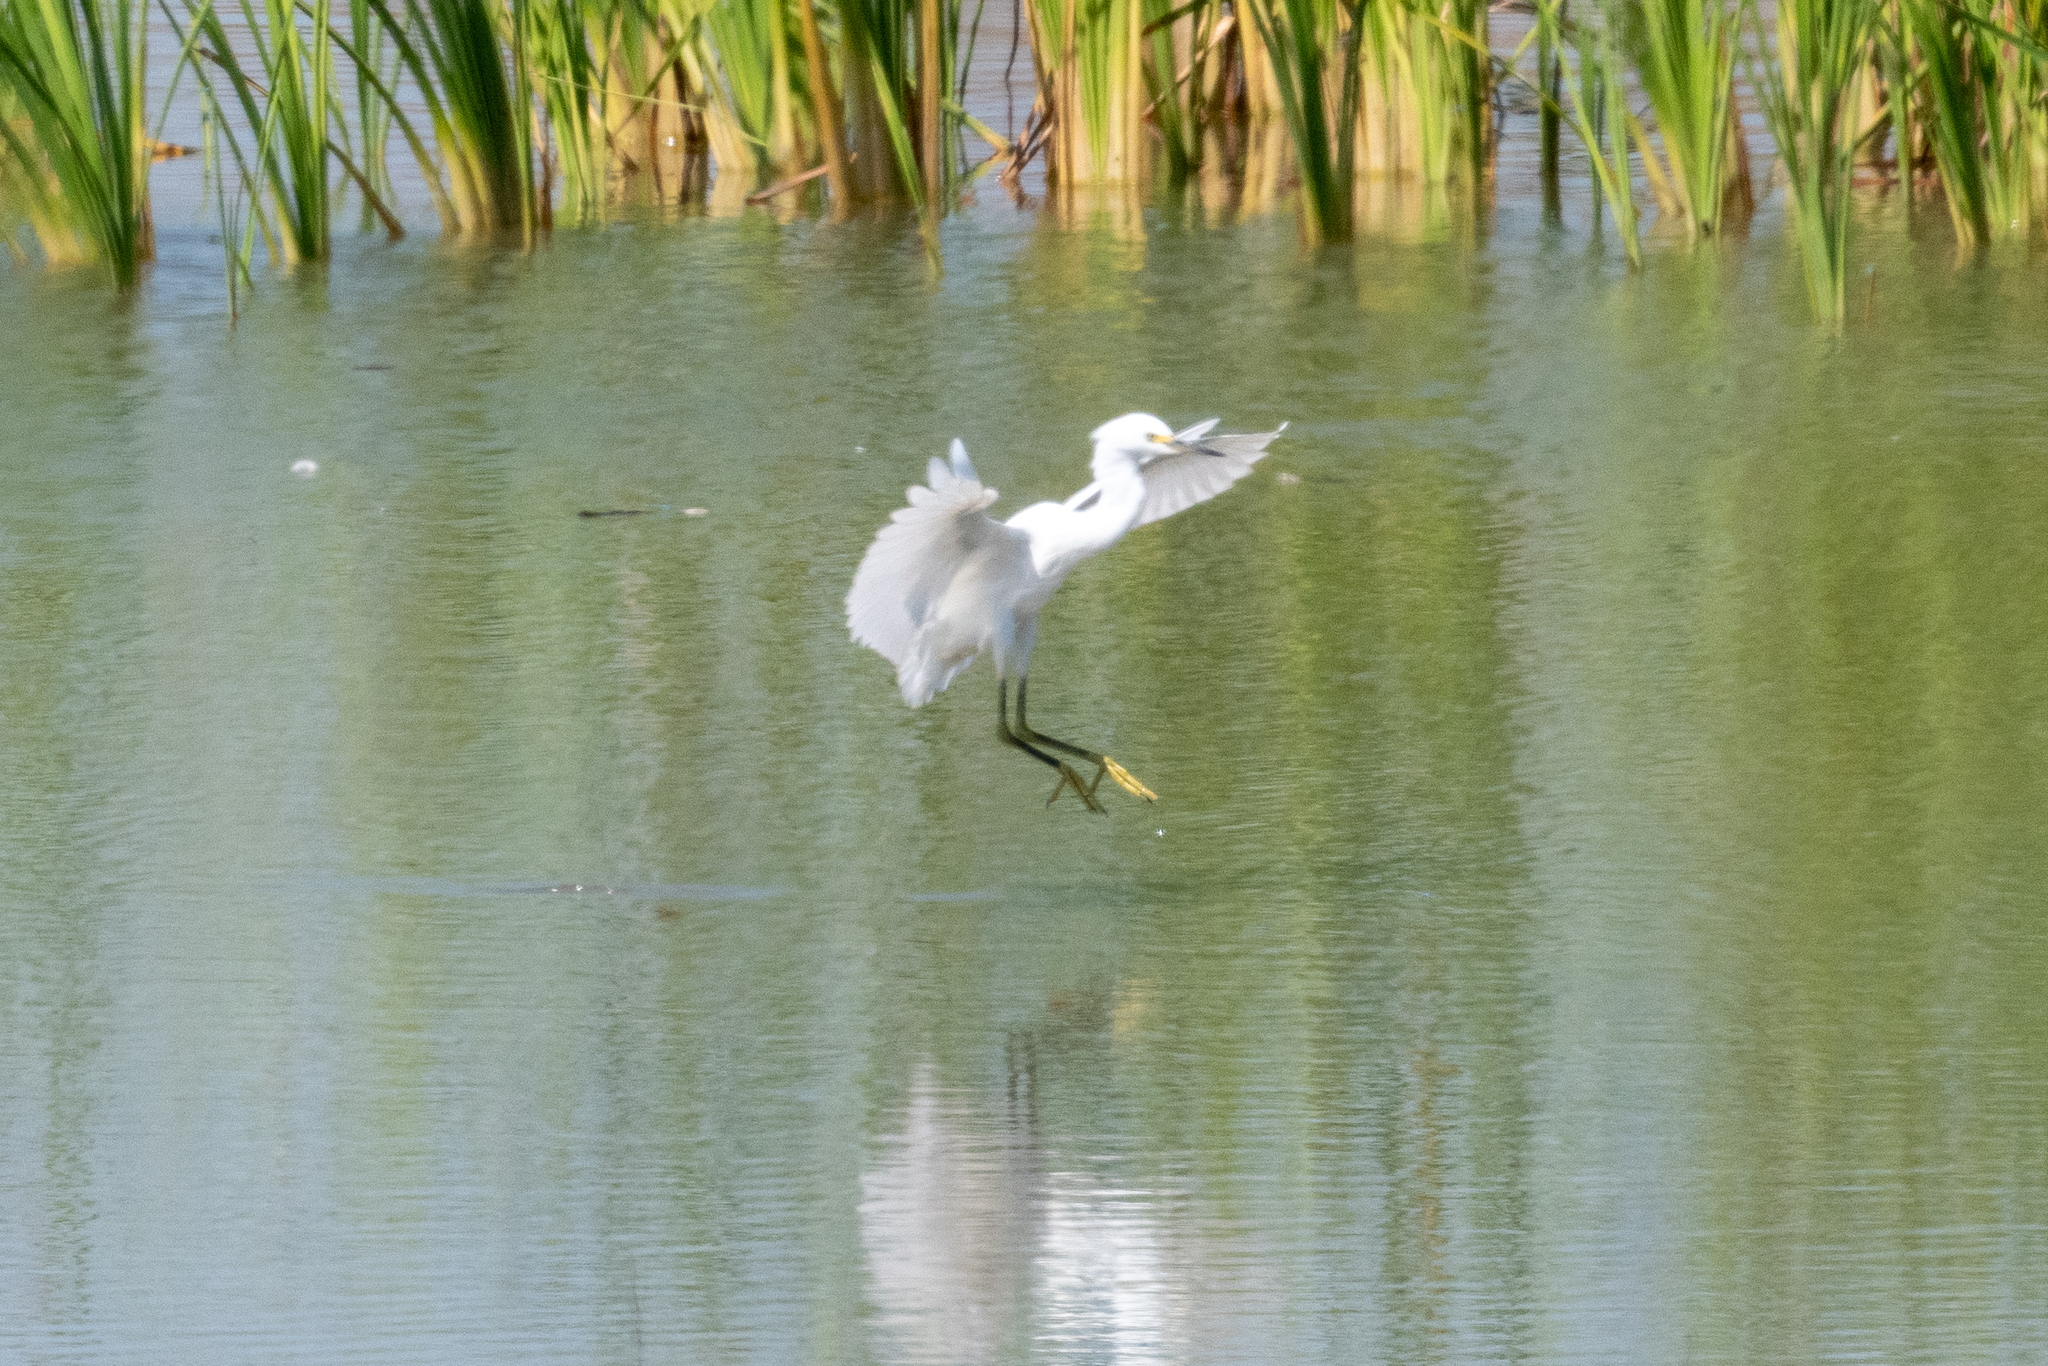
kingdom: Animalia
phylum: Chordata
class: Aves
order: Pelecaniformes
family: Ardeidae
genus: Egretta
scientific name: Egretta thula
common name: Snowy egret
